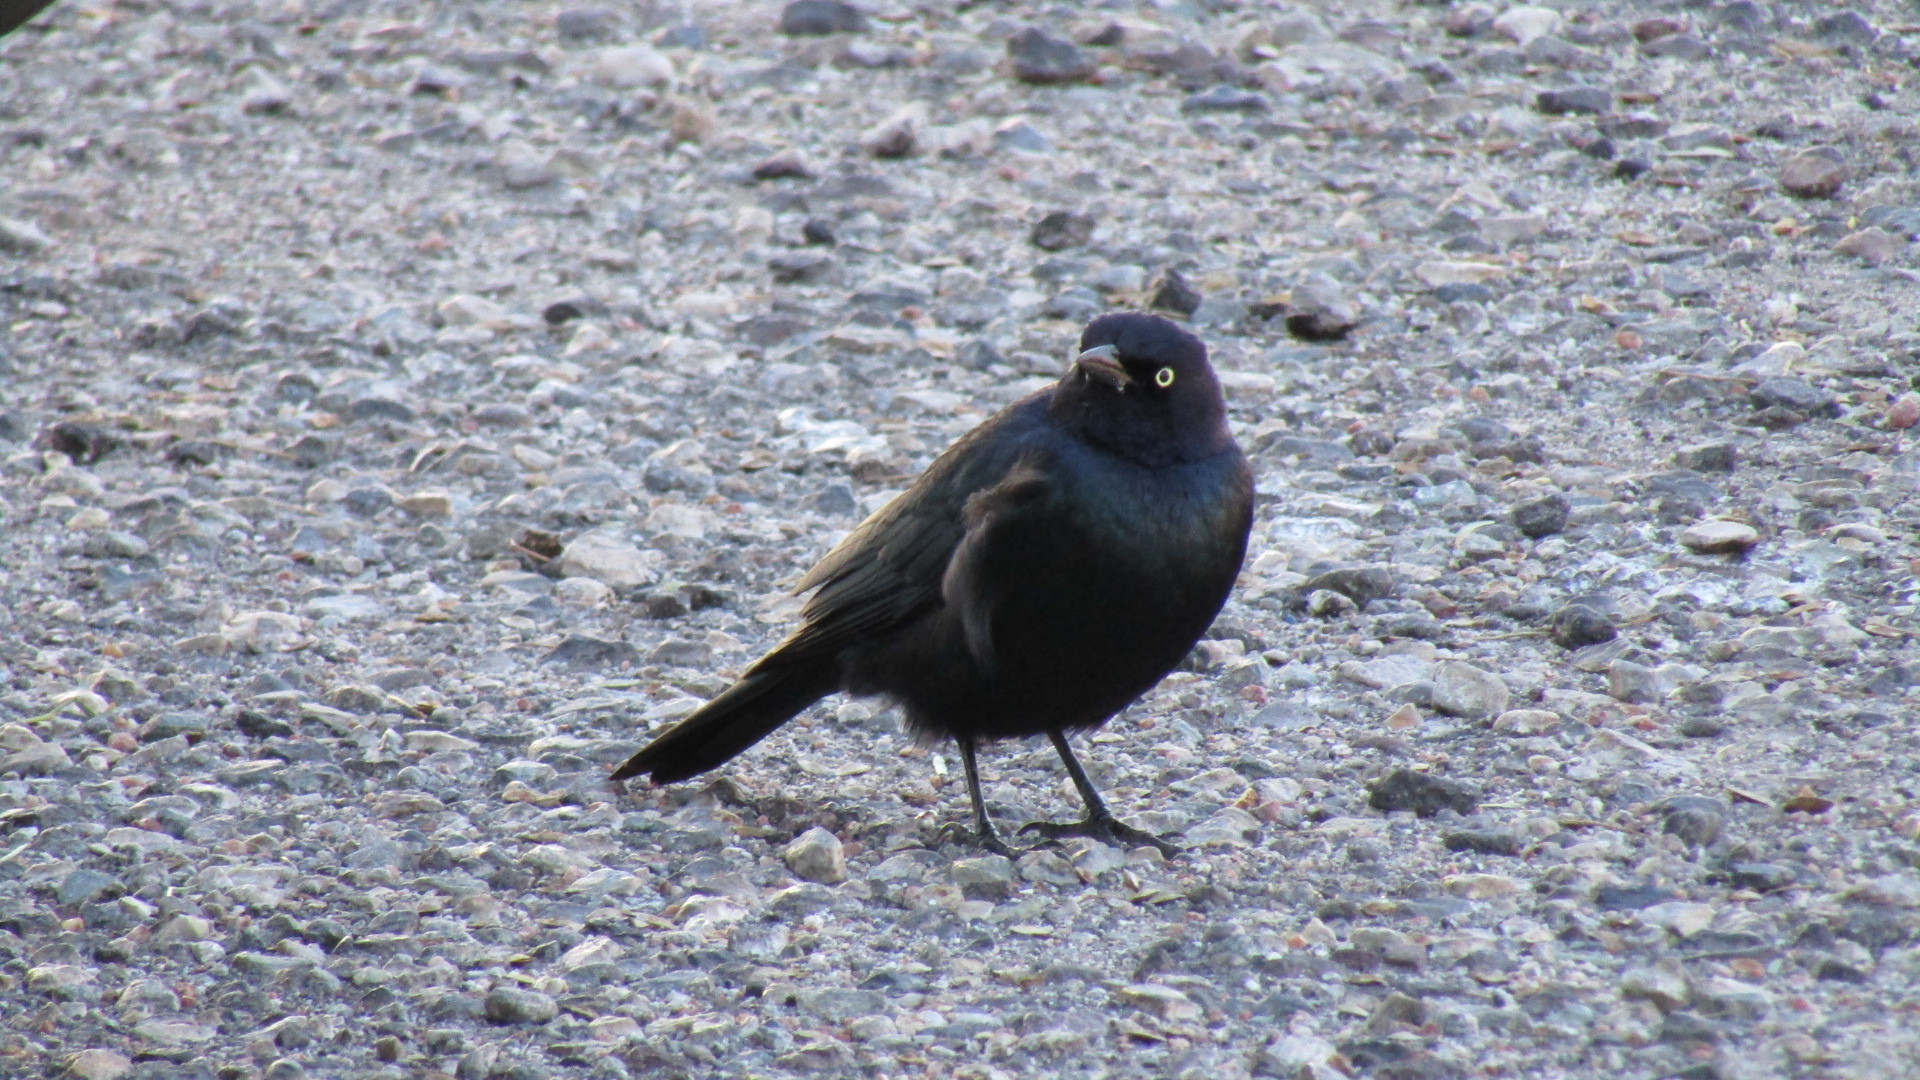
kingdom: Animalia
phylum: Chordata
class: Aves
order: Passeriformes
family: Icteridae
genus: Euphagus
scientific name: Euphagus cyanocephalus
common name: Brewer's blackbird
